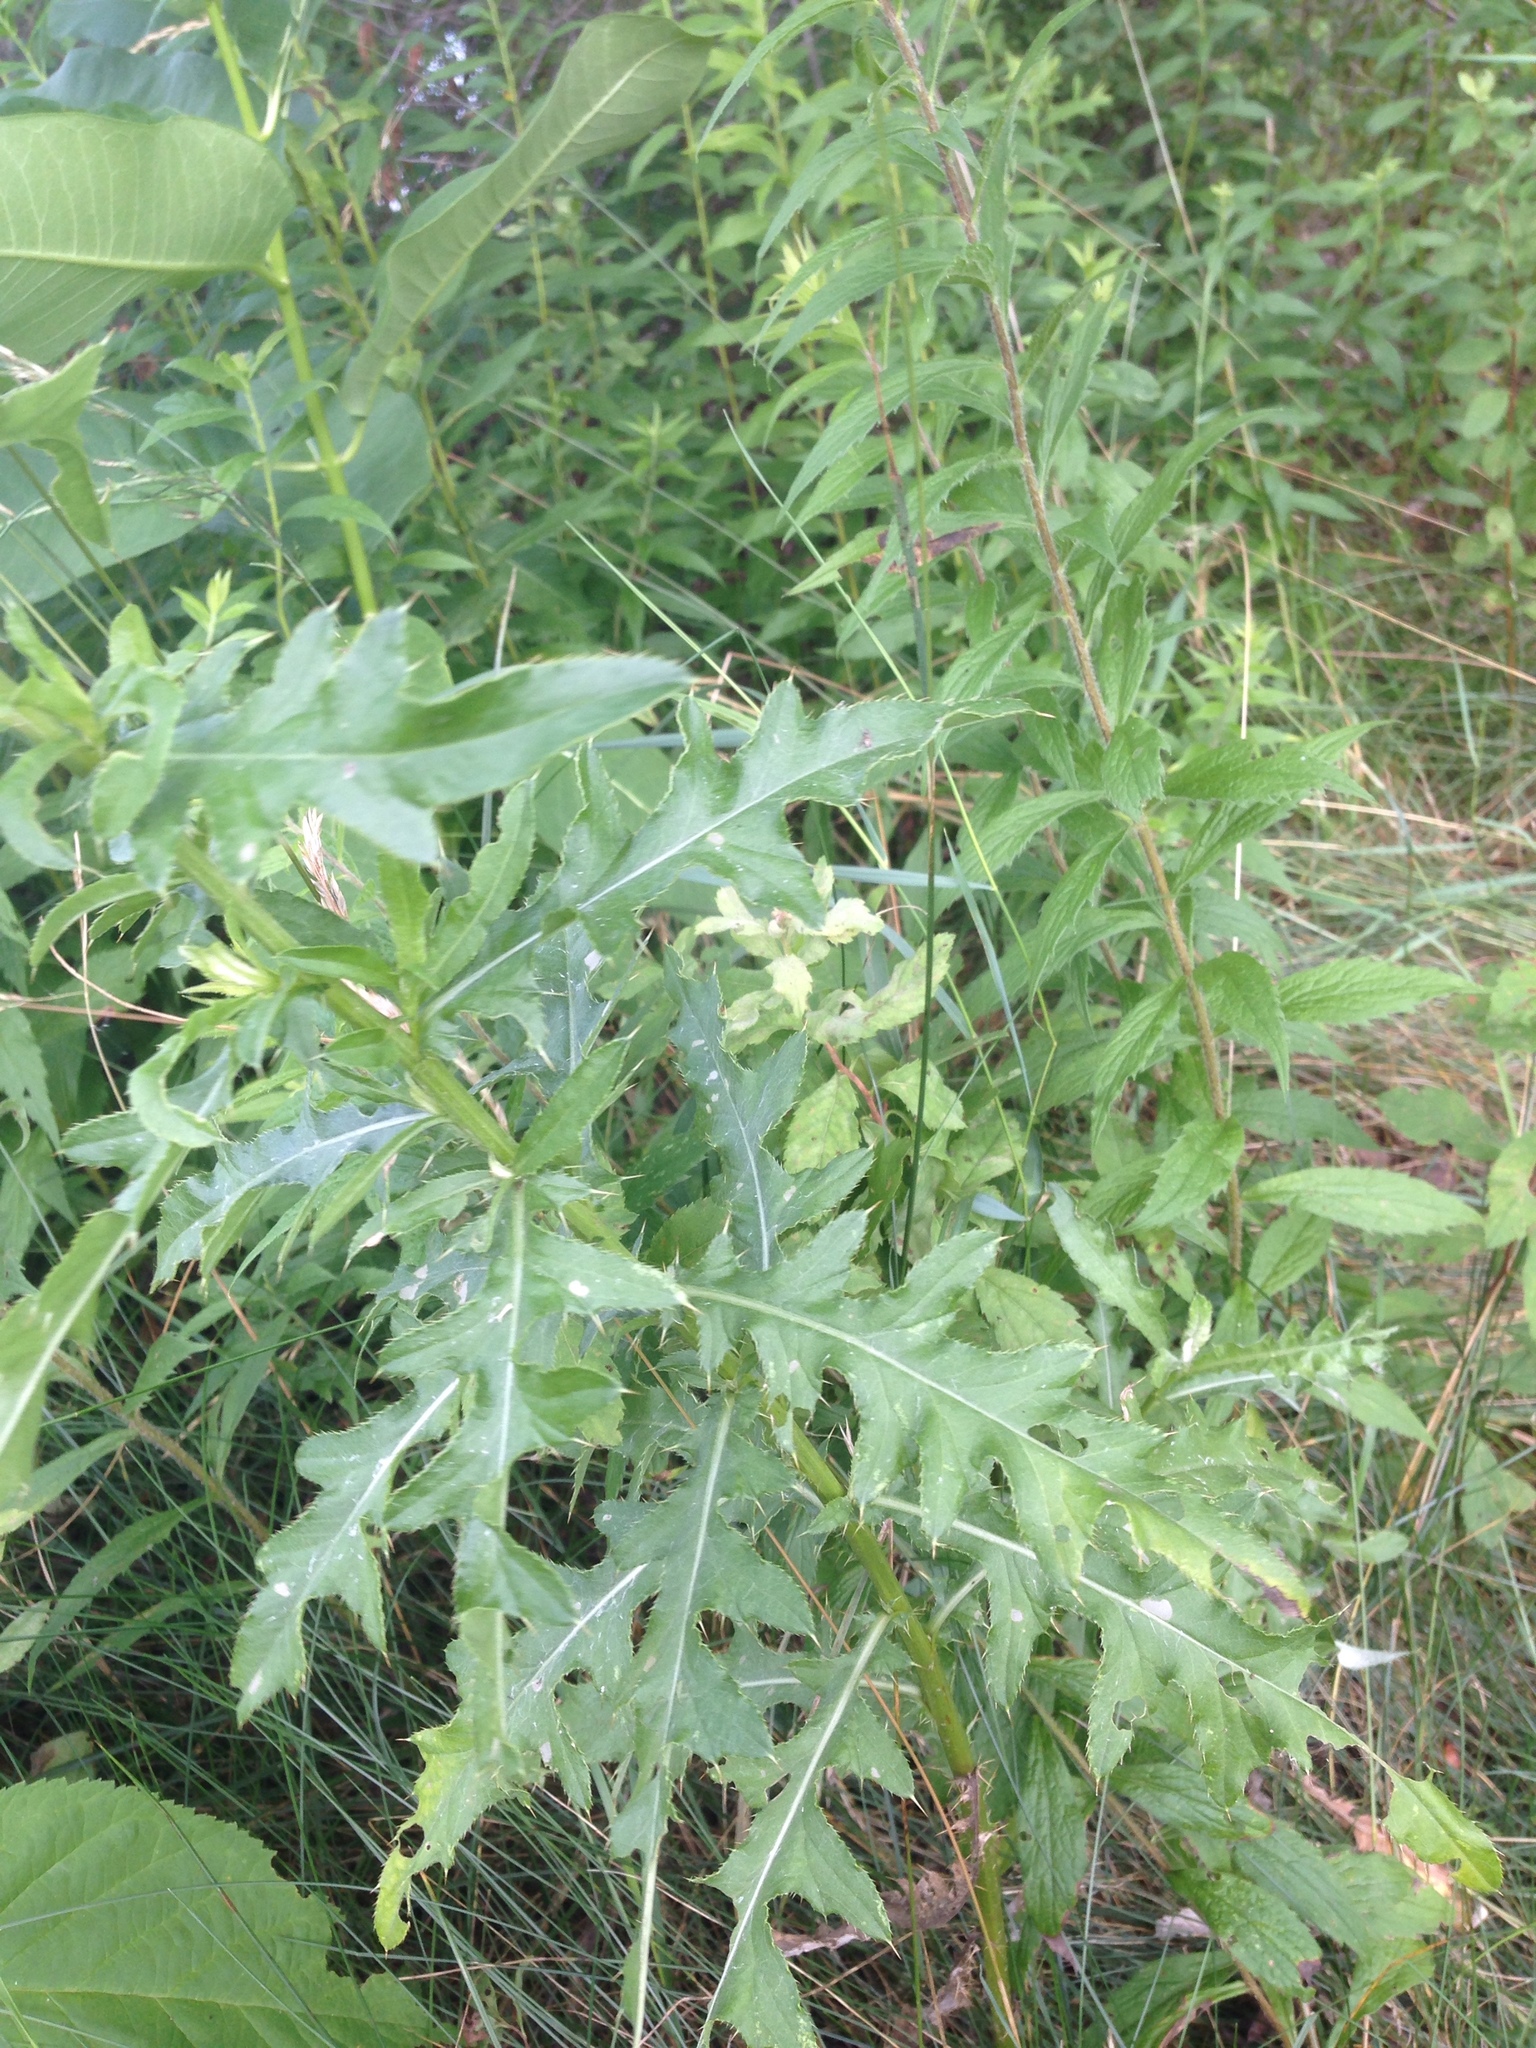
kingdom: Plantae
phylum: Tracheophyta
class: Magnoliopsida
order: Asterales
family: Asteraceae
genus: Cirsium
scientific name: Cirsium arvense
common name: Creeping thistle
